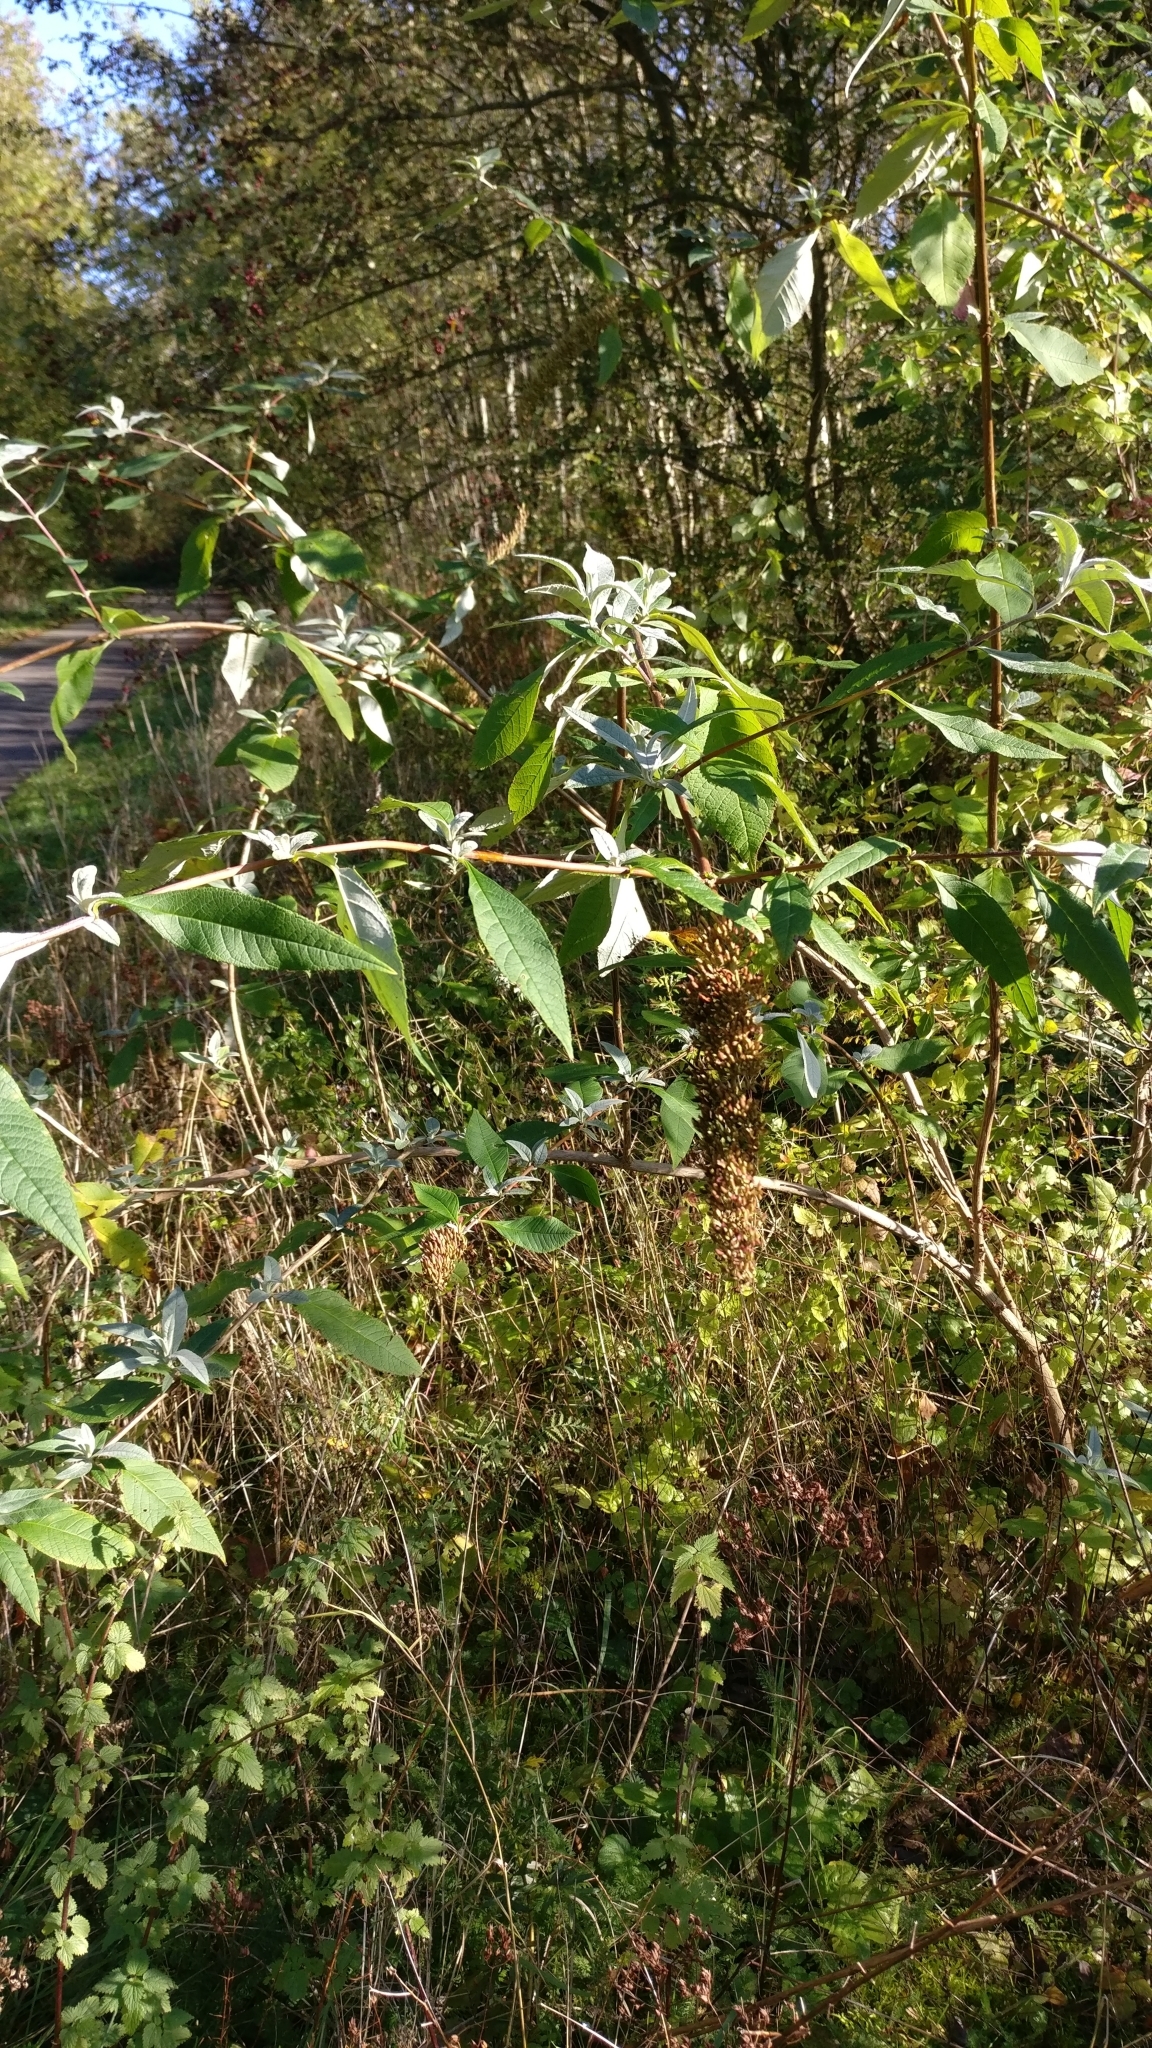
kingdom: Plantae
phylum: Tracheophyta
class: Magnoliopsida
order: Lamiales
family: Scrophulariaceae
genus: Buddleja
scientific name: Buddleja davidii
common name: Butterfly-bush
